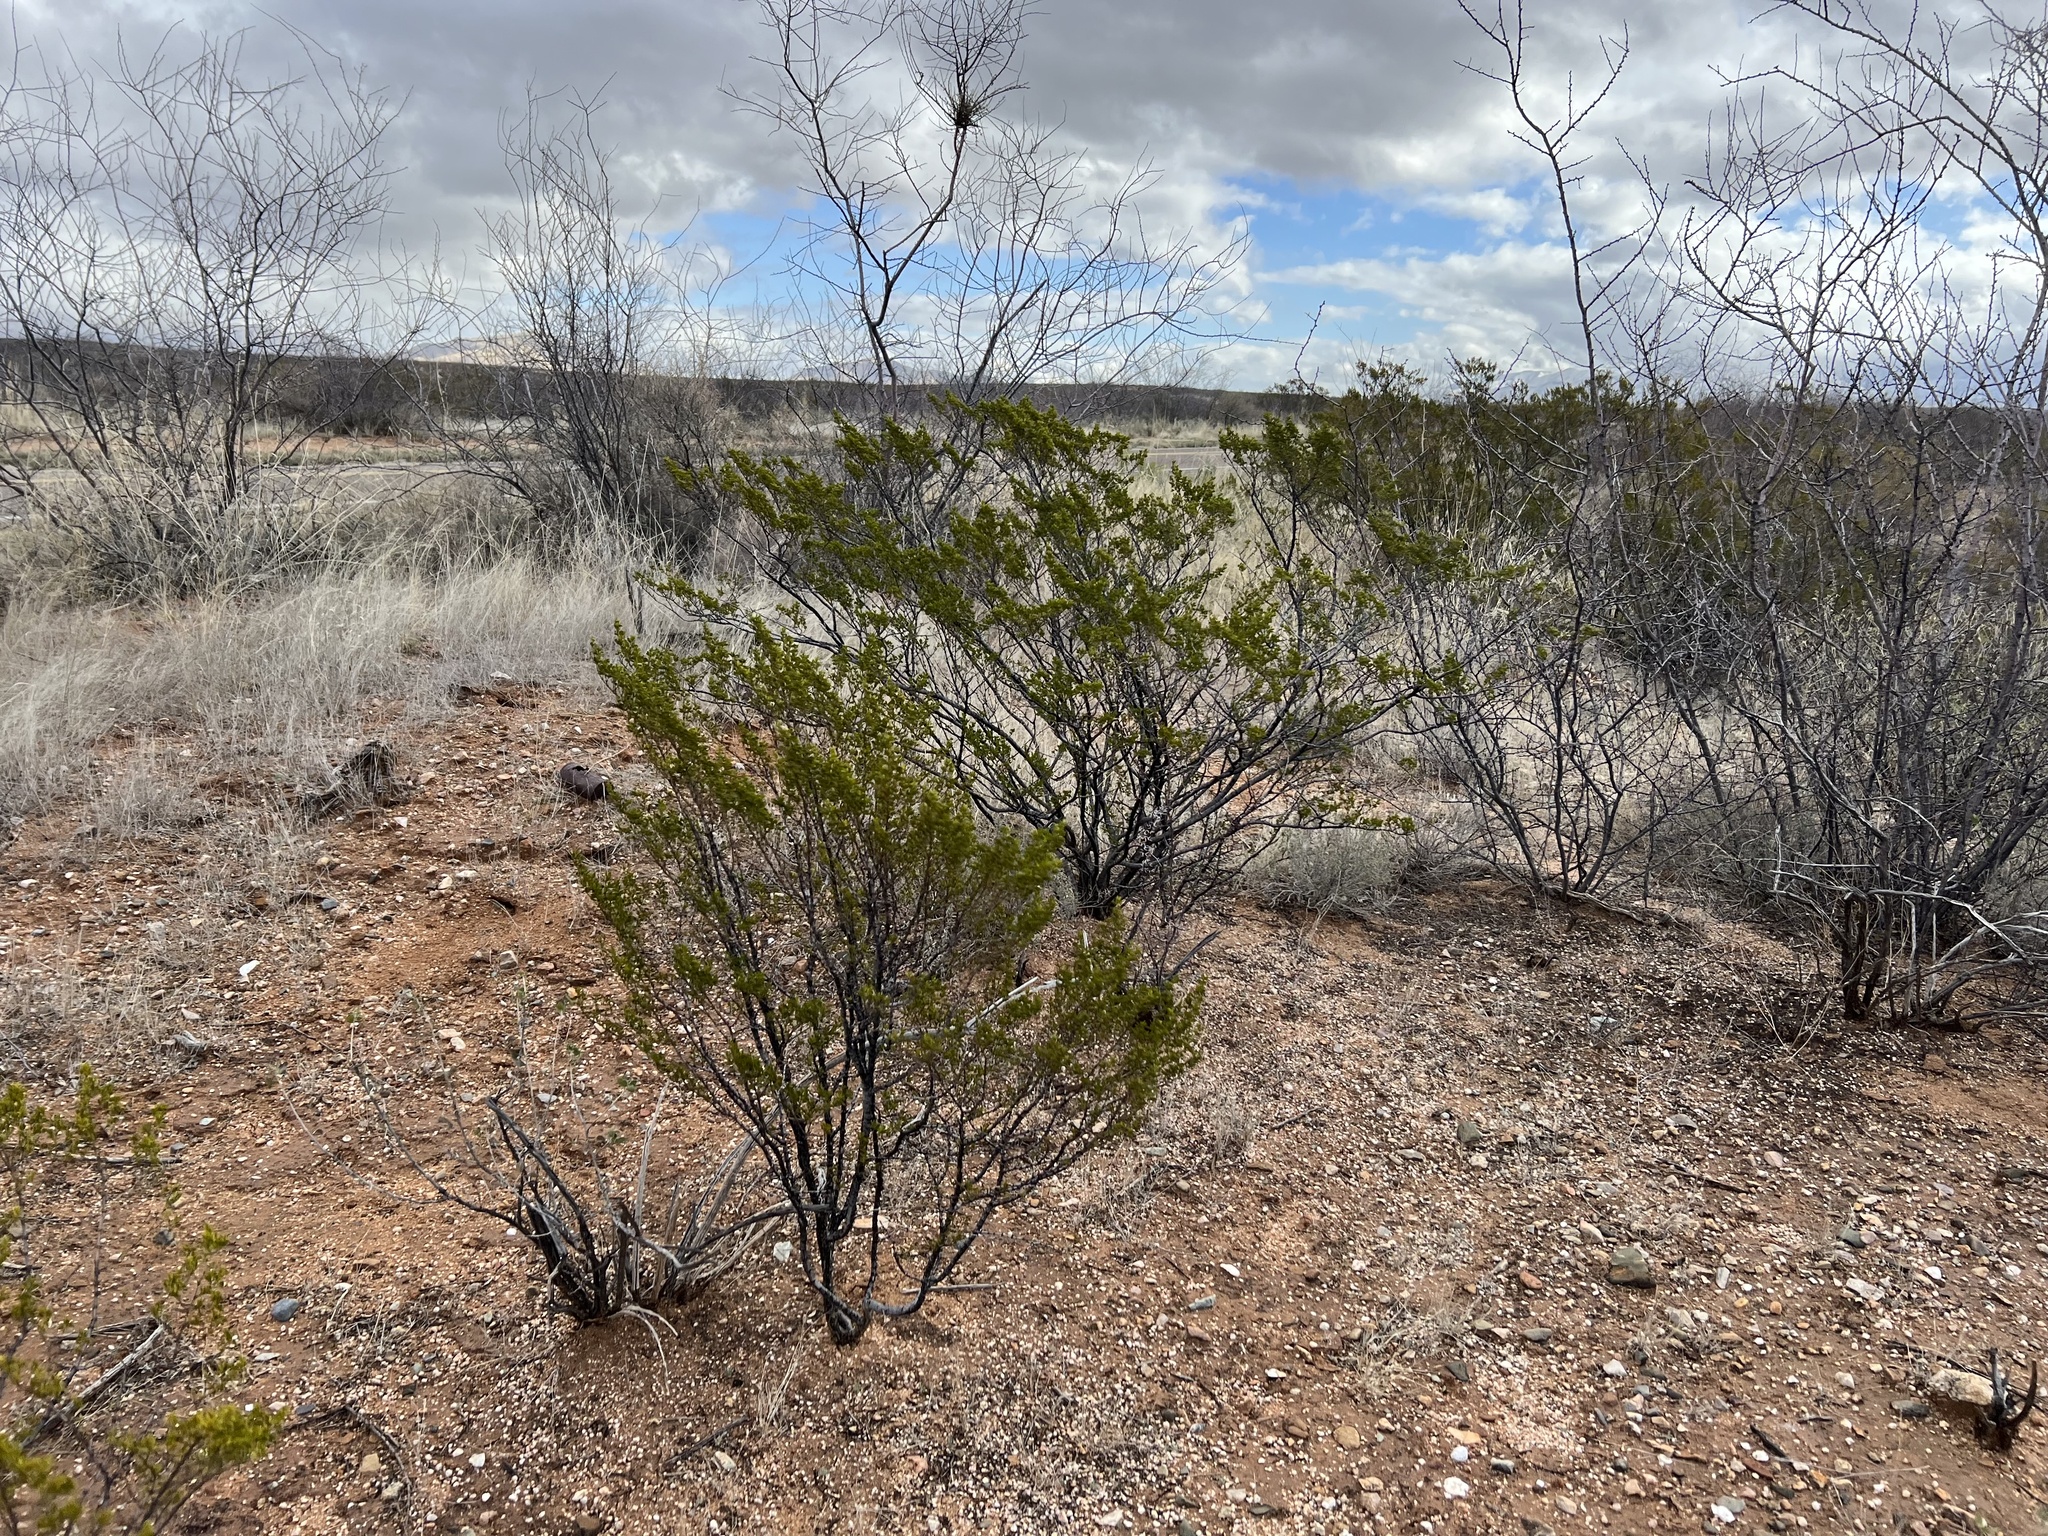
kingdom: Plantae
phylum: Tracheophyta
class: Magnoliopsida
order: Zygophyllales
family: Zygophyllaceae
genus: Larrea
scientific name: Larrea tridentata
